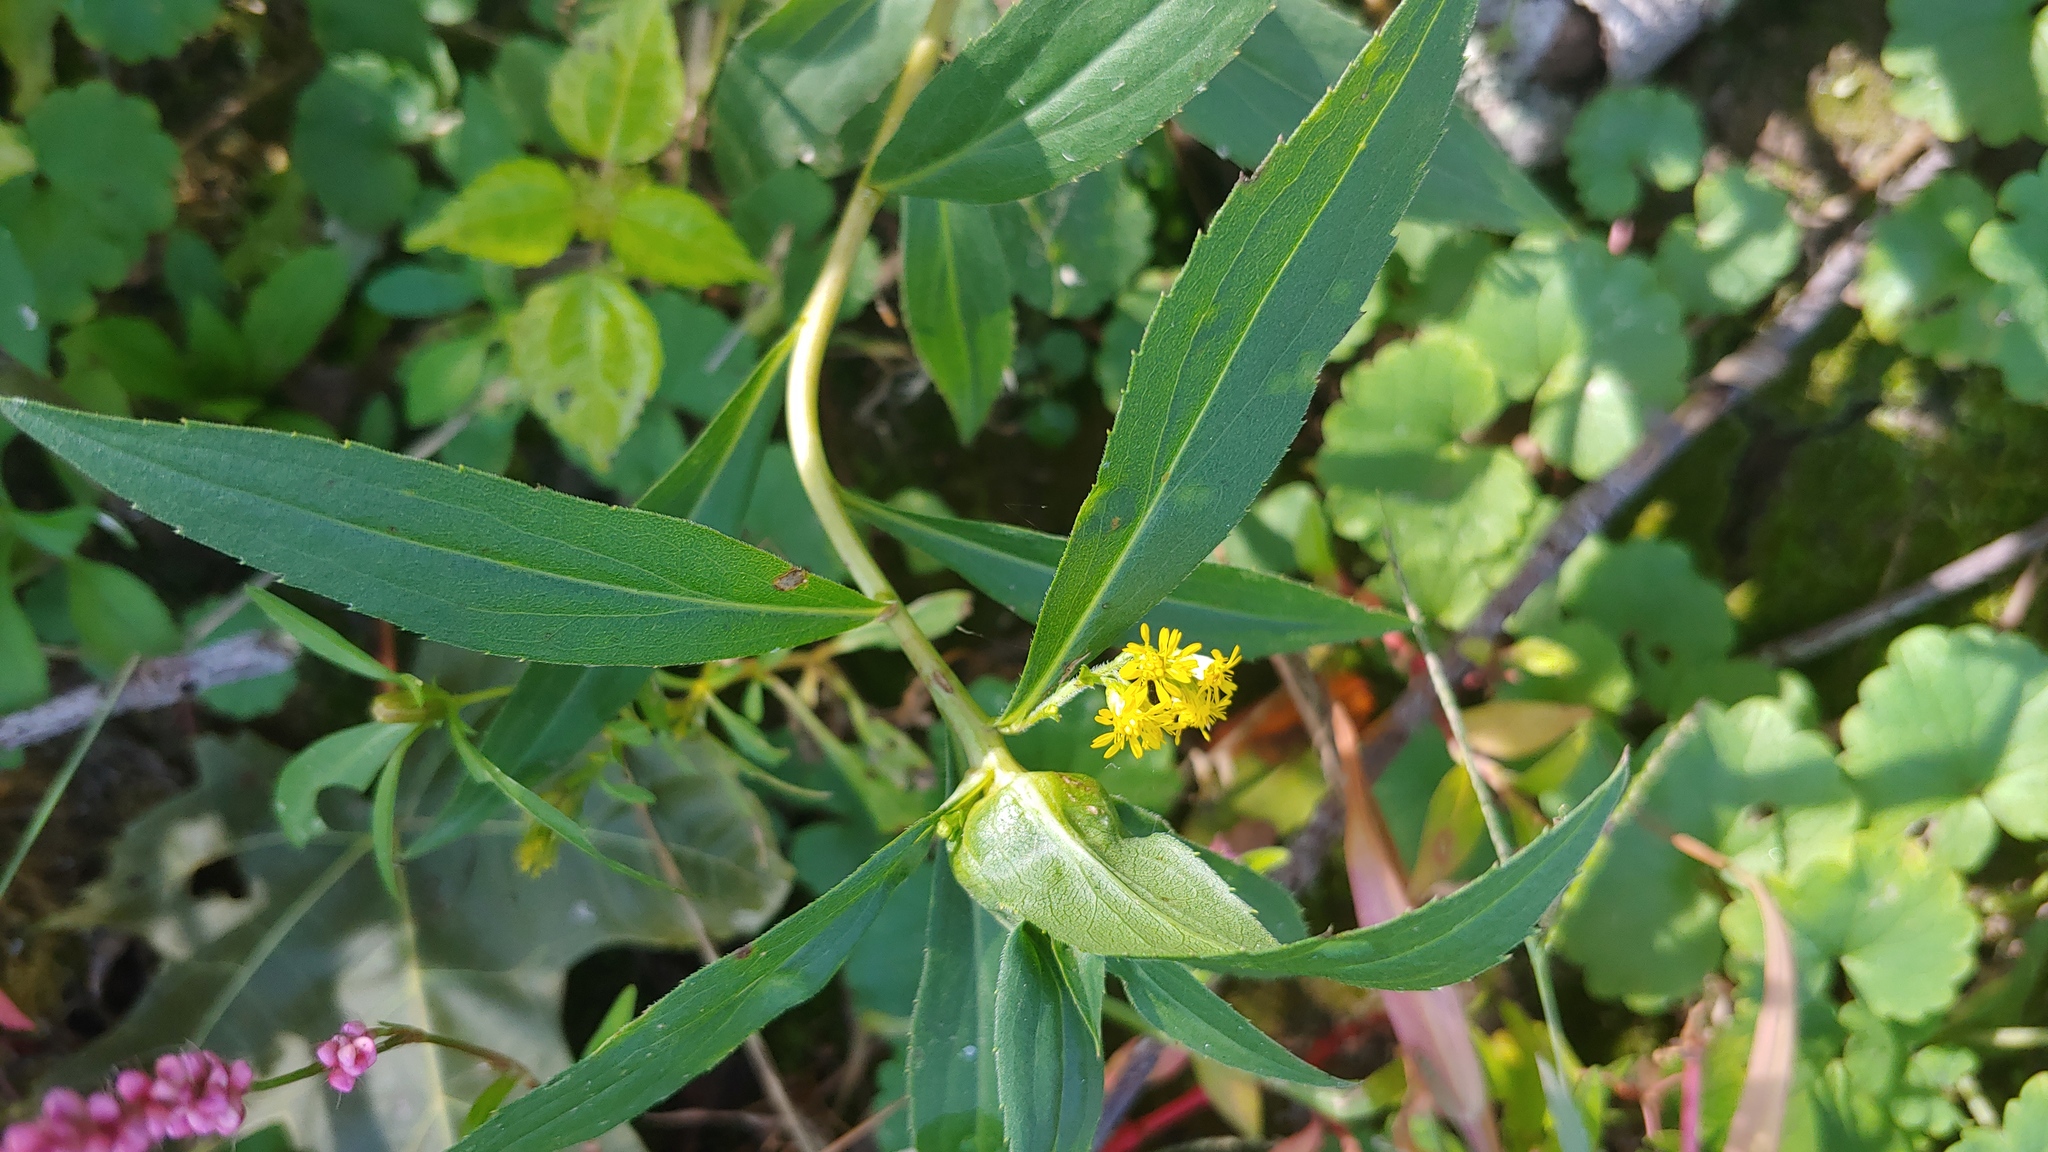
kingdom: Animalia
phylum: Arthropoda
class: Insecta
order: Diptera
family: Cecidomyiidae
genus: Dasineura
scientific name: Dasineura folliculi
